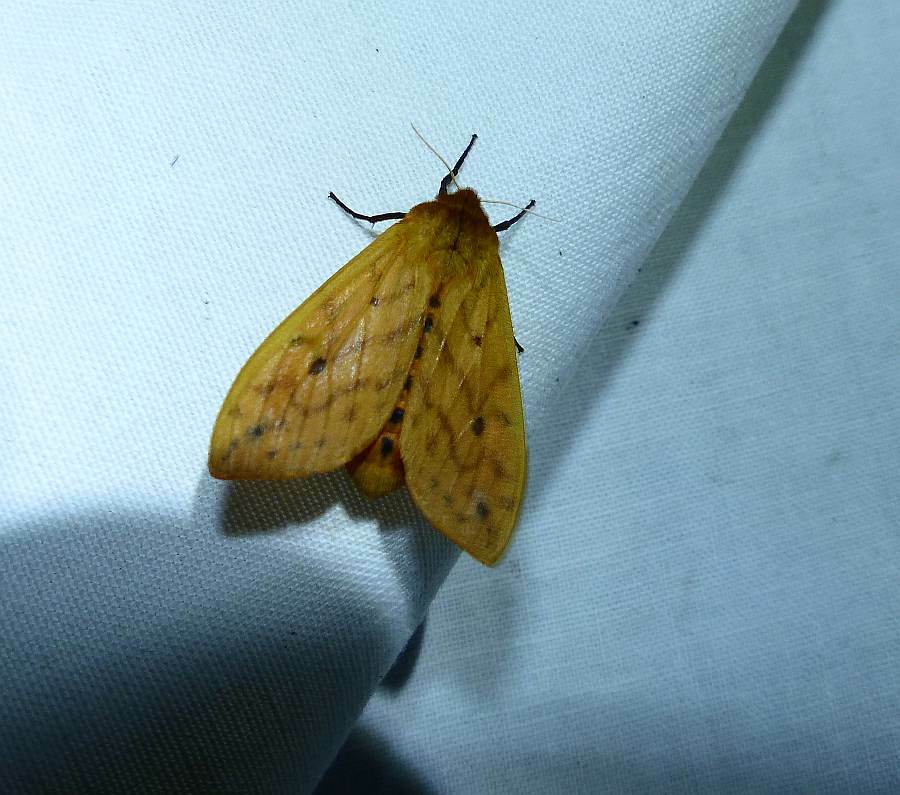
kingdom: Animalia
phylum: Arthropoda
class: Insecta
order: Lepidoptera
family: Erebidae
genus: Pyrrharctia
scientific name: Pyrrharctia isabella
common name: Isabella tiger moth
